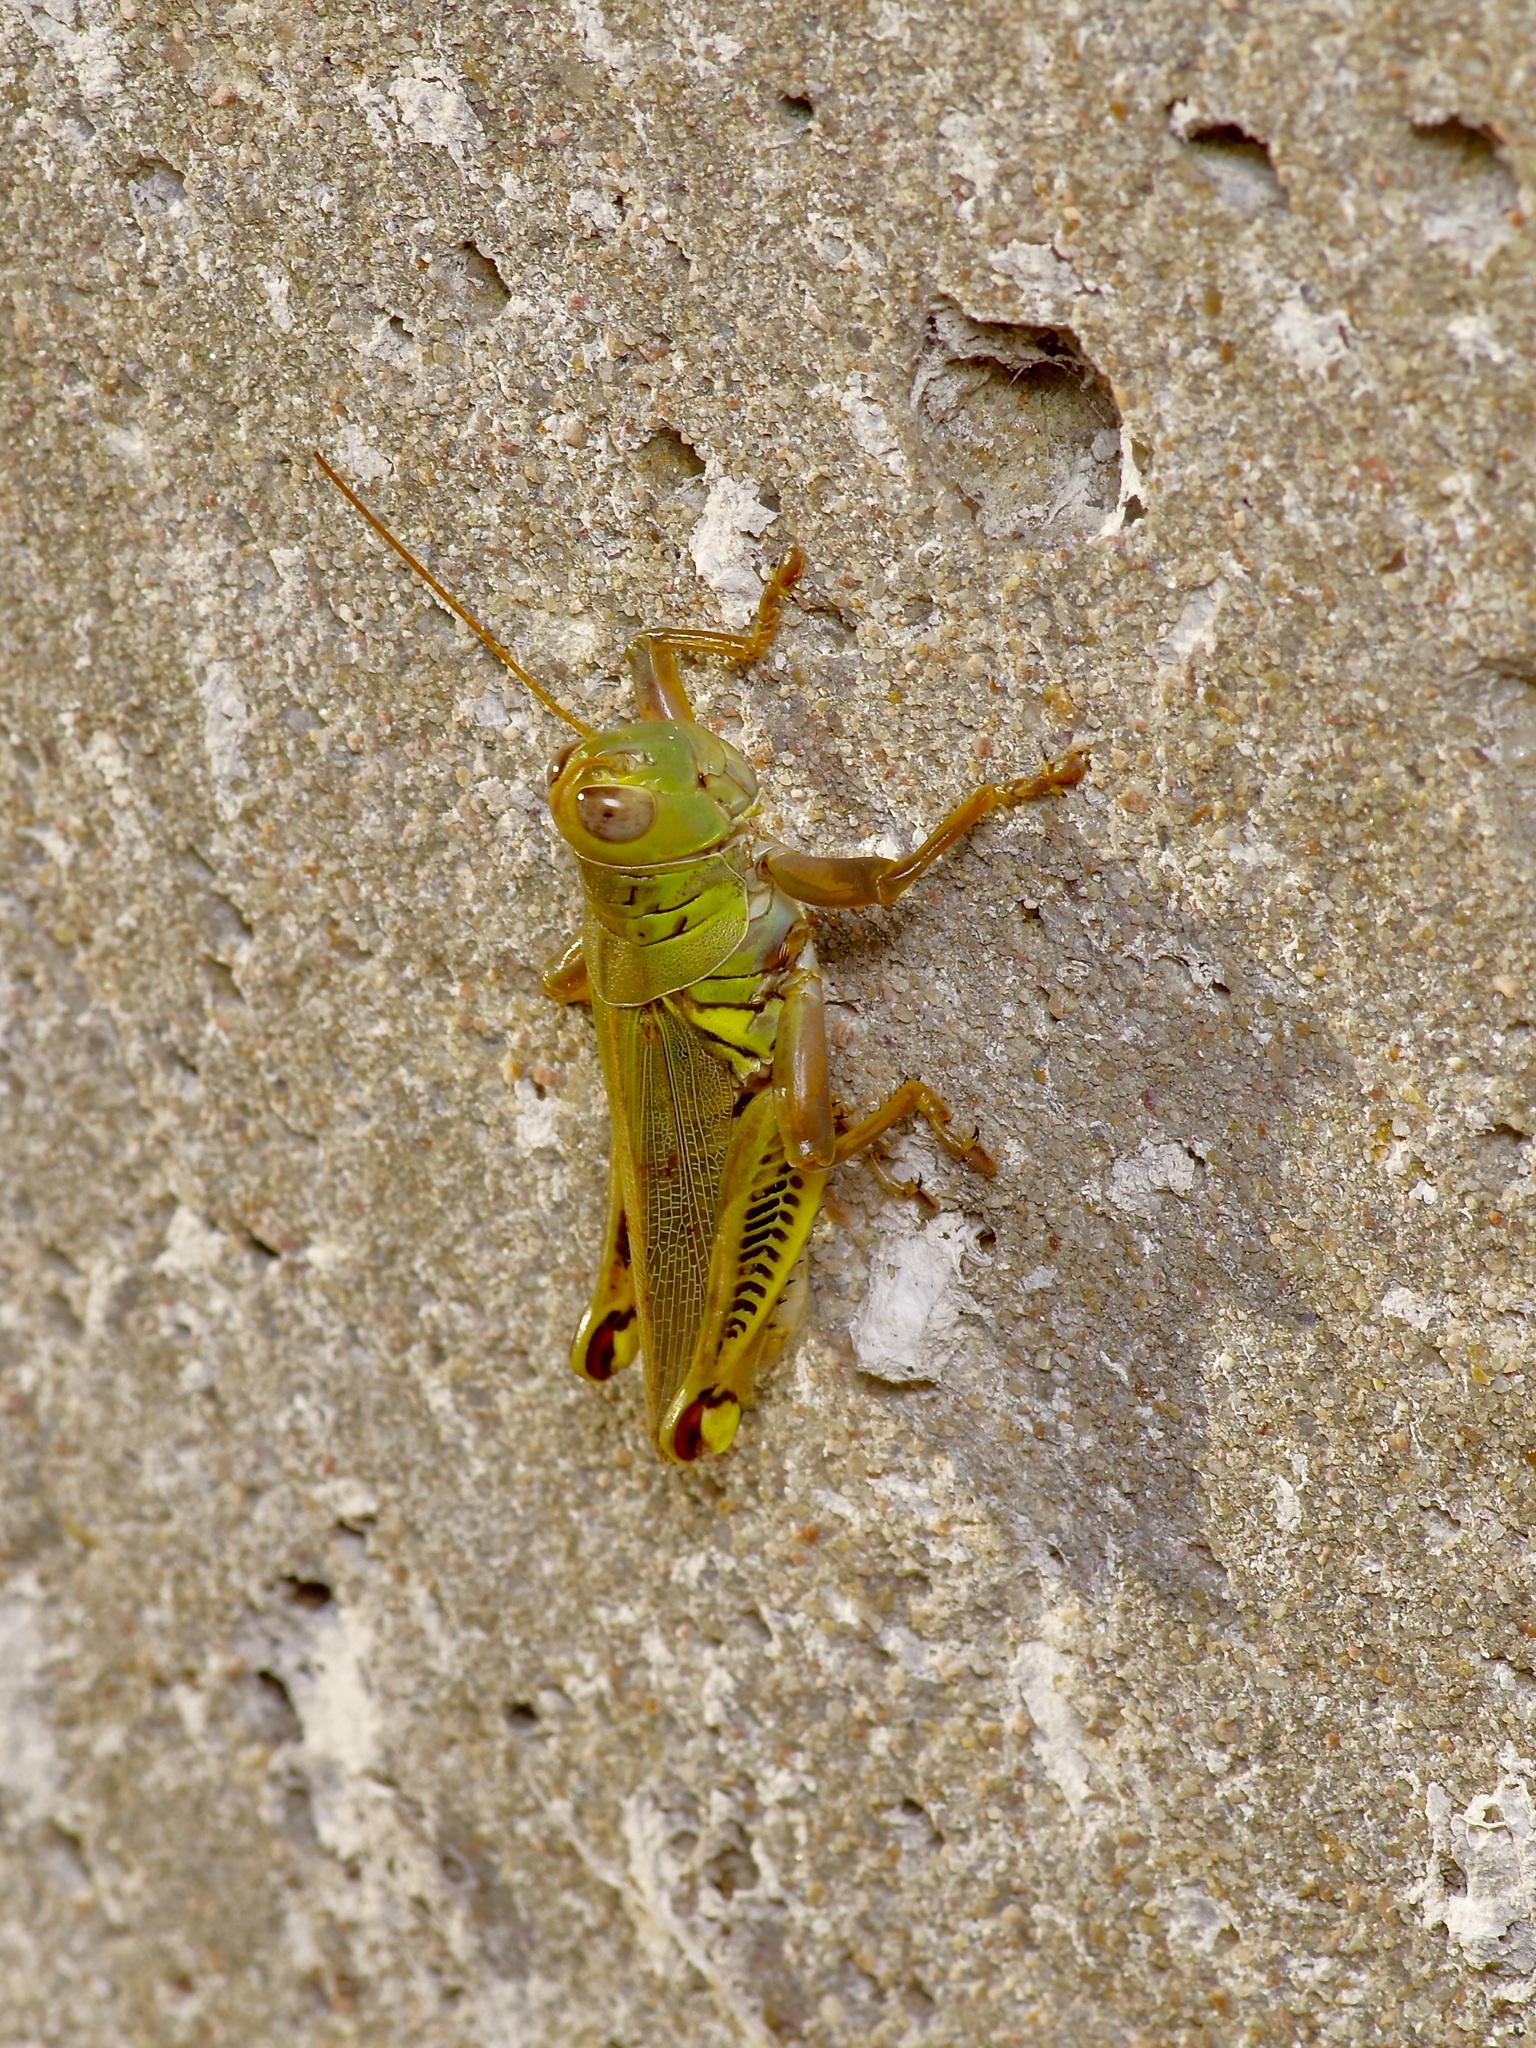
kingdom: Animalia
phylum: Arthropoda
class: Insecta
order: Orthoptera
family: Acrididae
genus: Melanoplus
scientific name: Melanoplus differentialis
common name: Differential grasshopper
